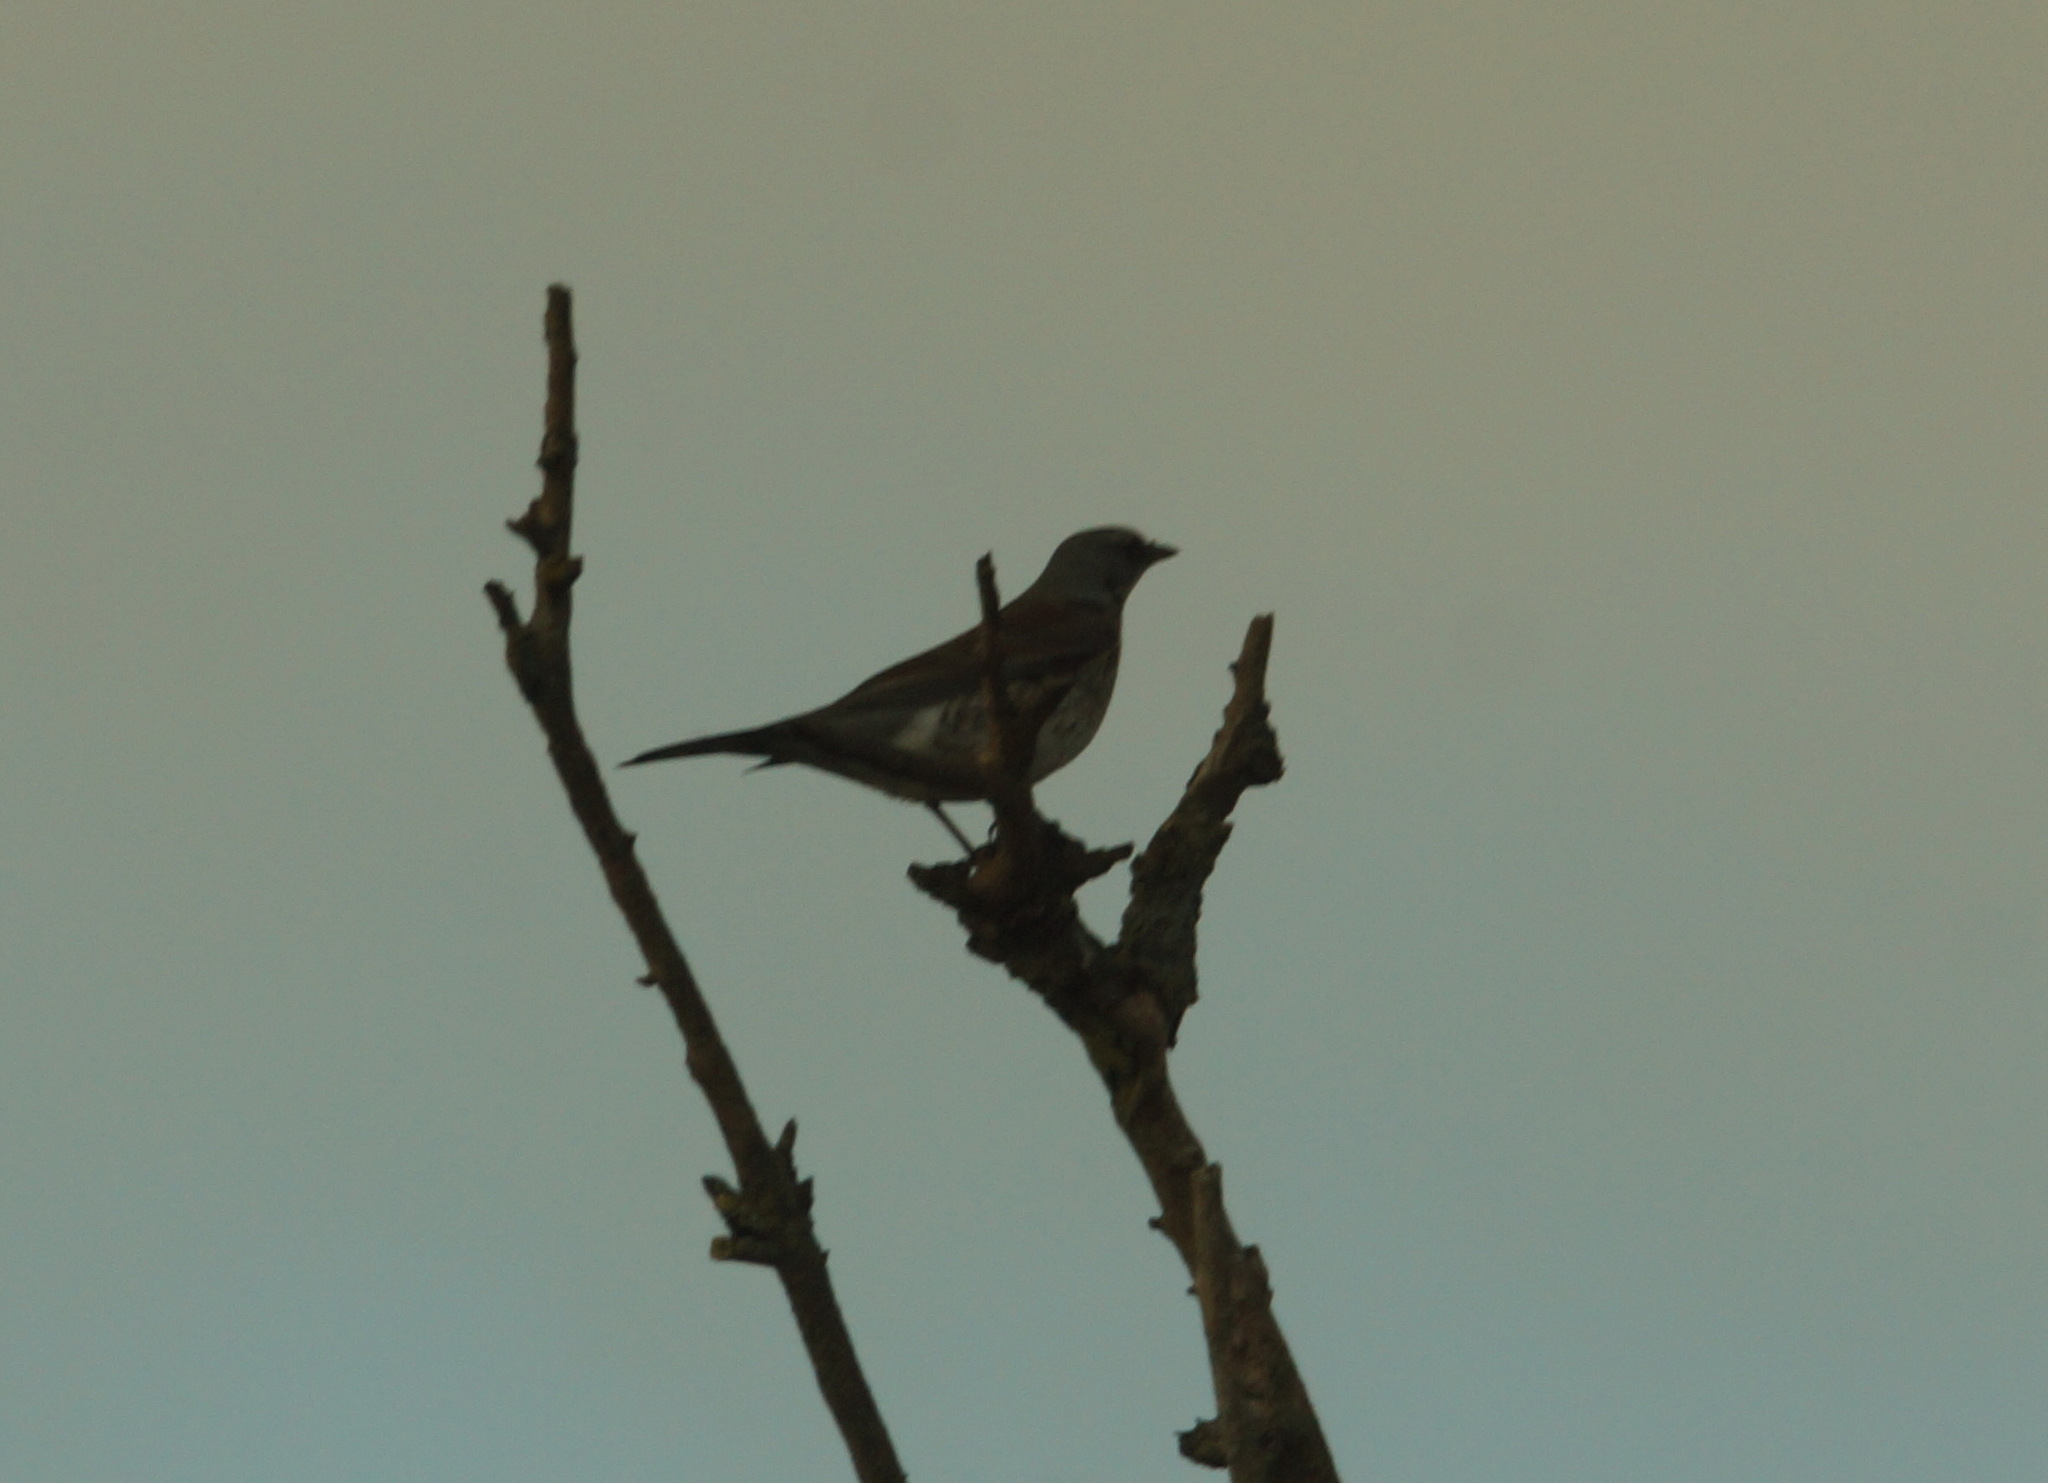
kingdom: Animalia
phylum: Chordata
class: Aves
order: Passeriformes
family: Turdidae
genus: Turdus
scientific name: Turdus pilaris
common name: Fieldfare
